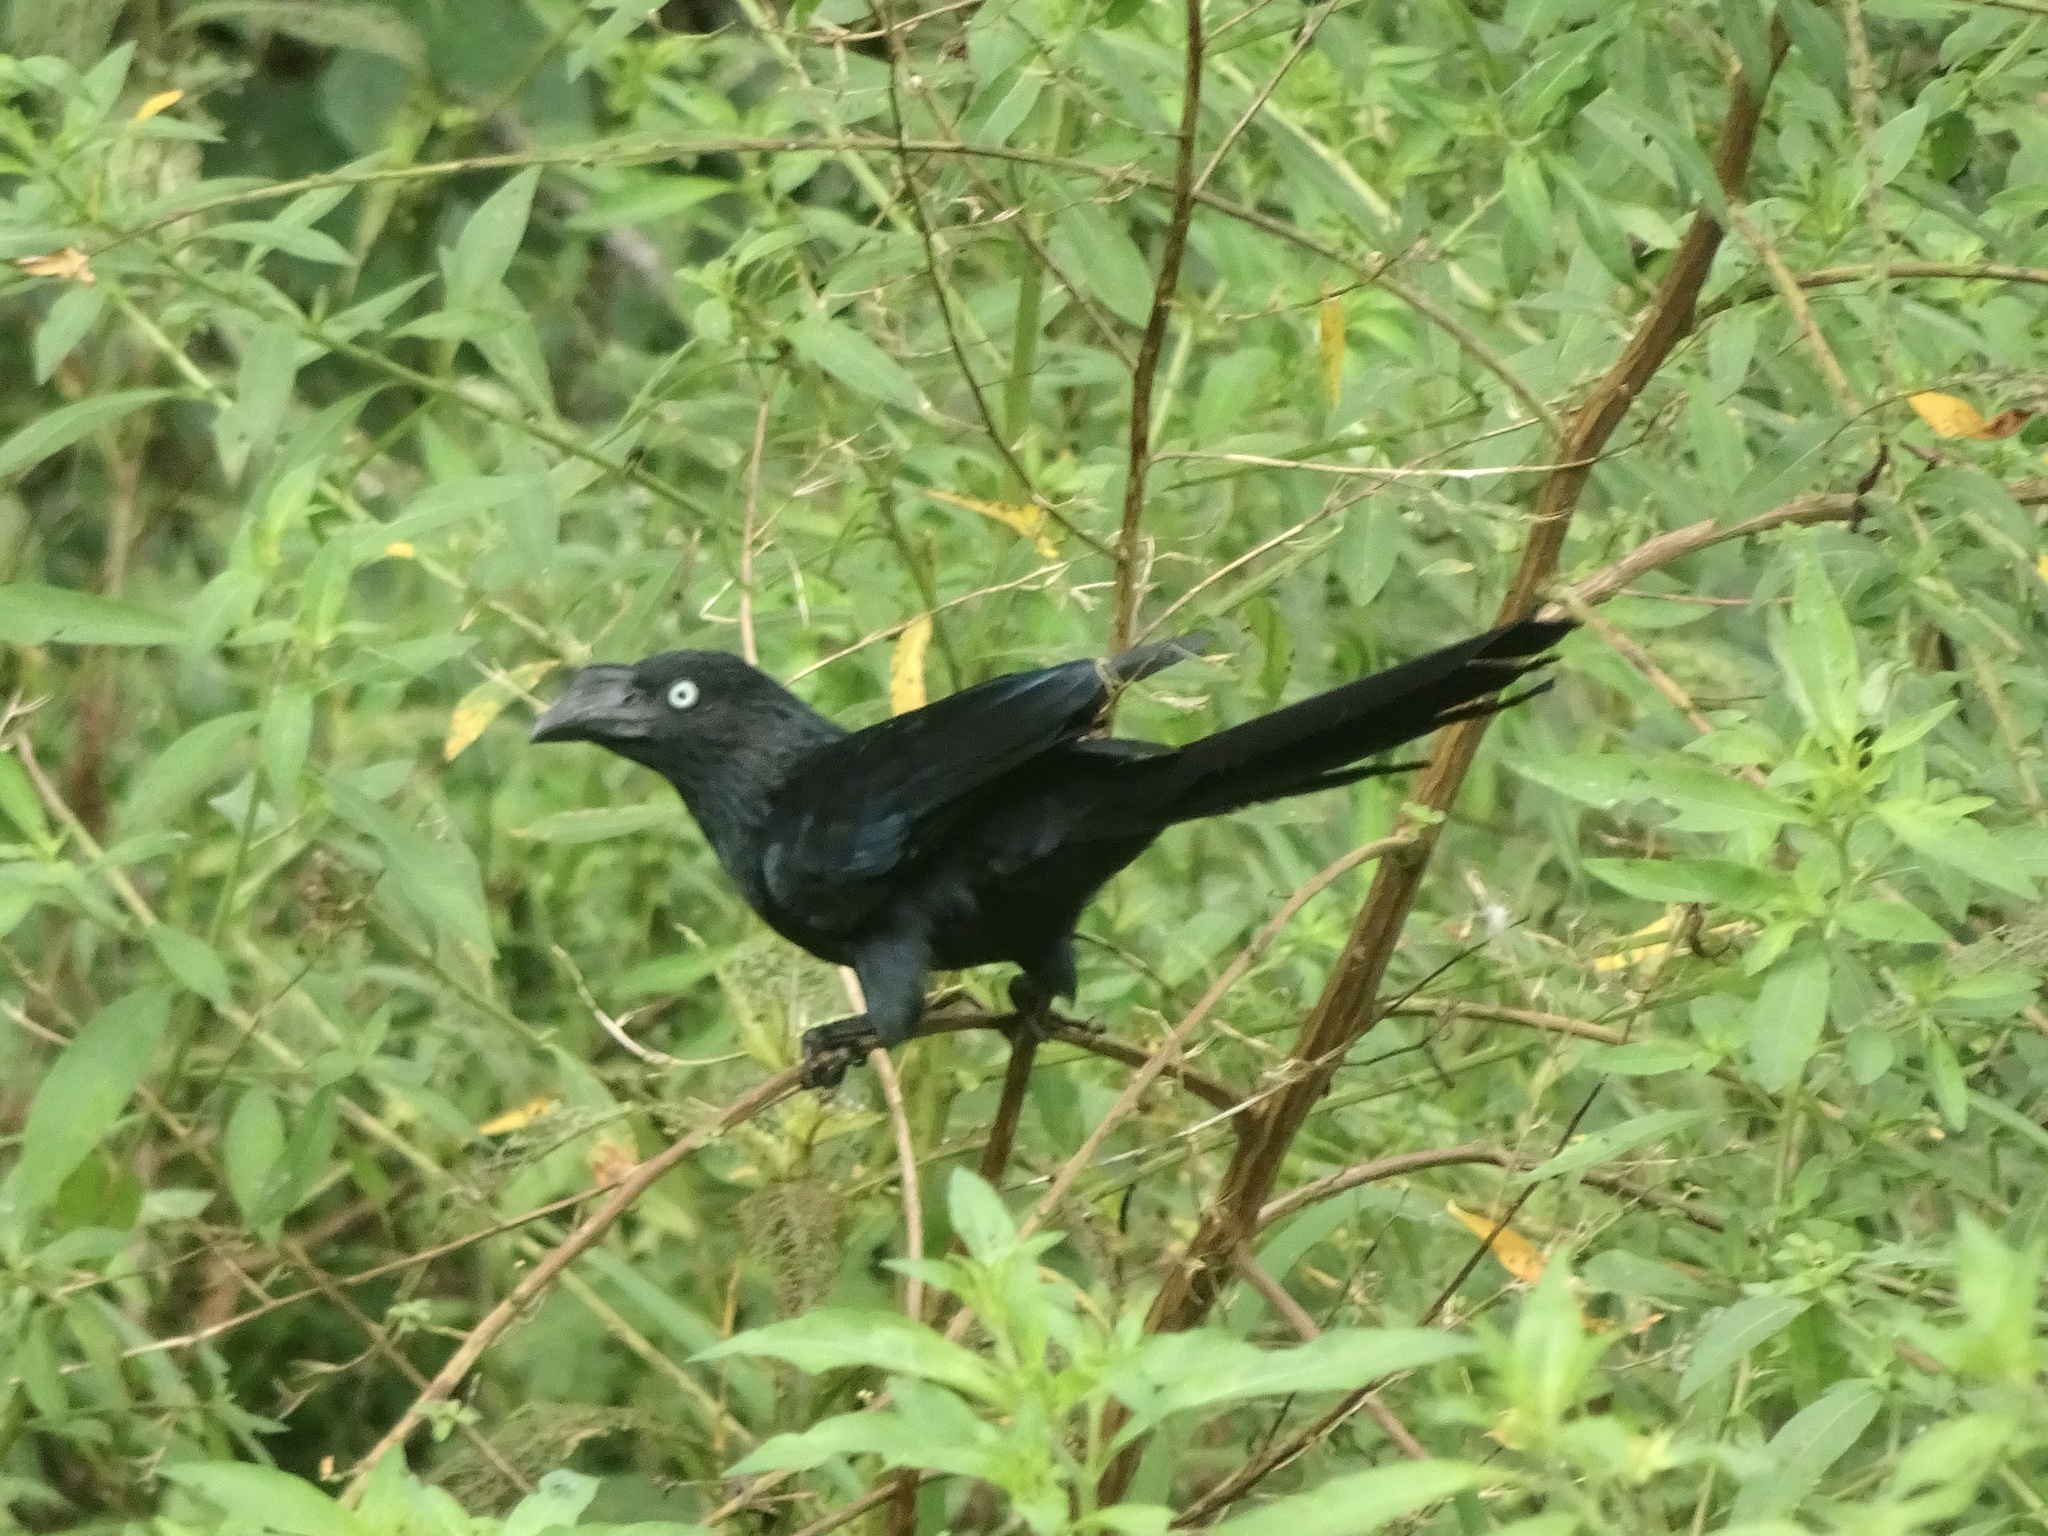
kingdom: Animalia
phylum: Chordata
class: Aves
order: Cuculiformes
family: Cuculidae
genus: Crotophaga
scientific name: Crotophaga major
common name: Greater ani
